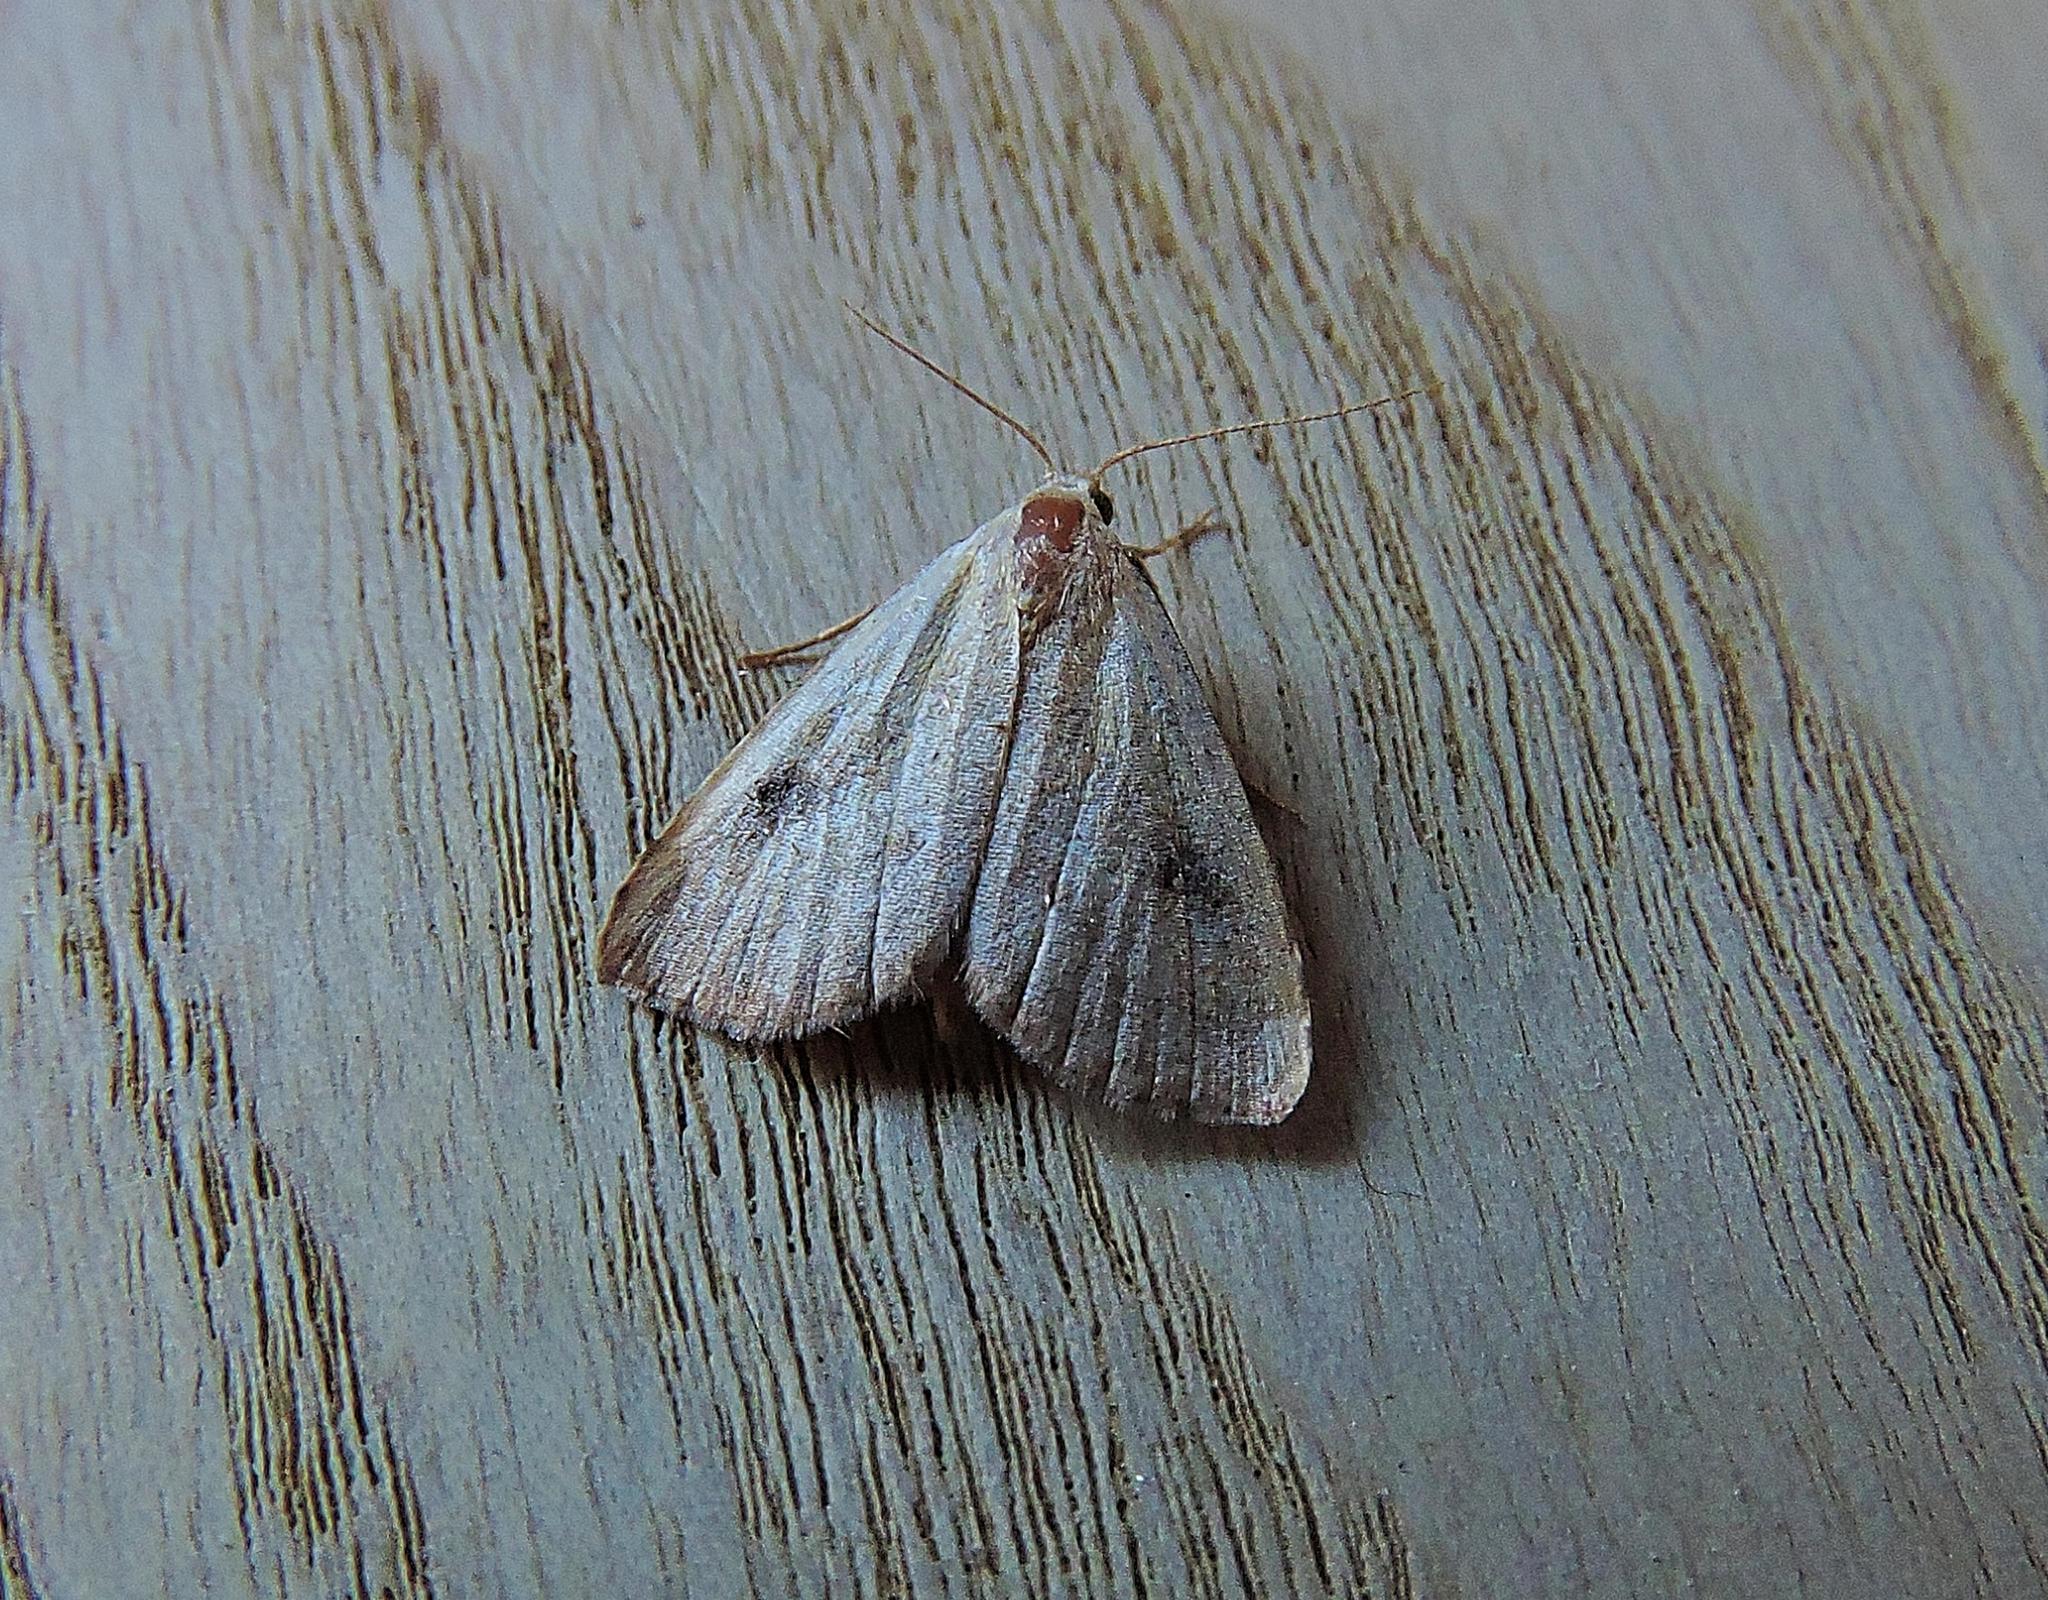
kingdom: Animalia
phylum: Arthropoda
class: Insecta
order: Lepidoptera
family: Erebidae
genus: Rivula
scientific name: Rivula sericealis
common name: Straw dot
